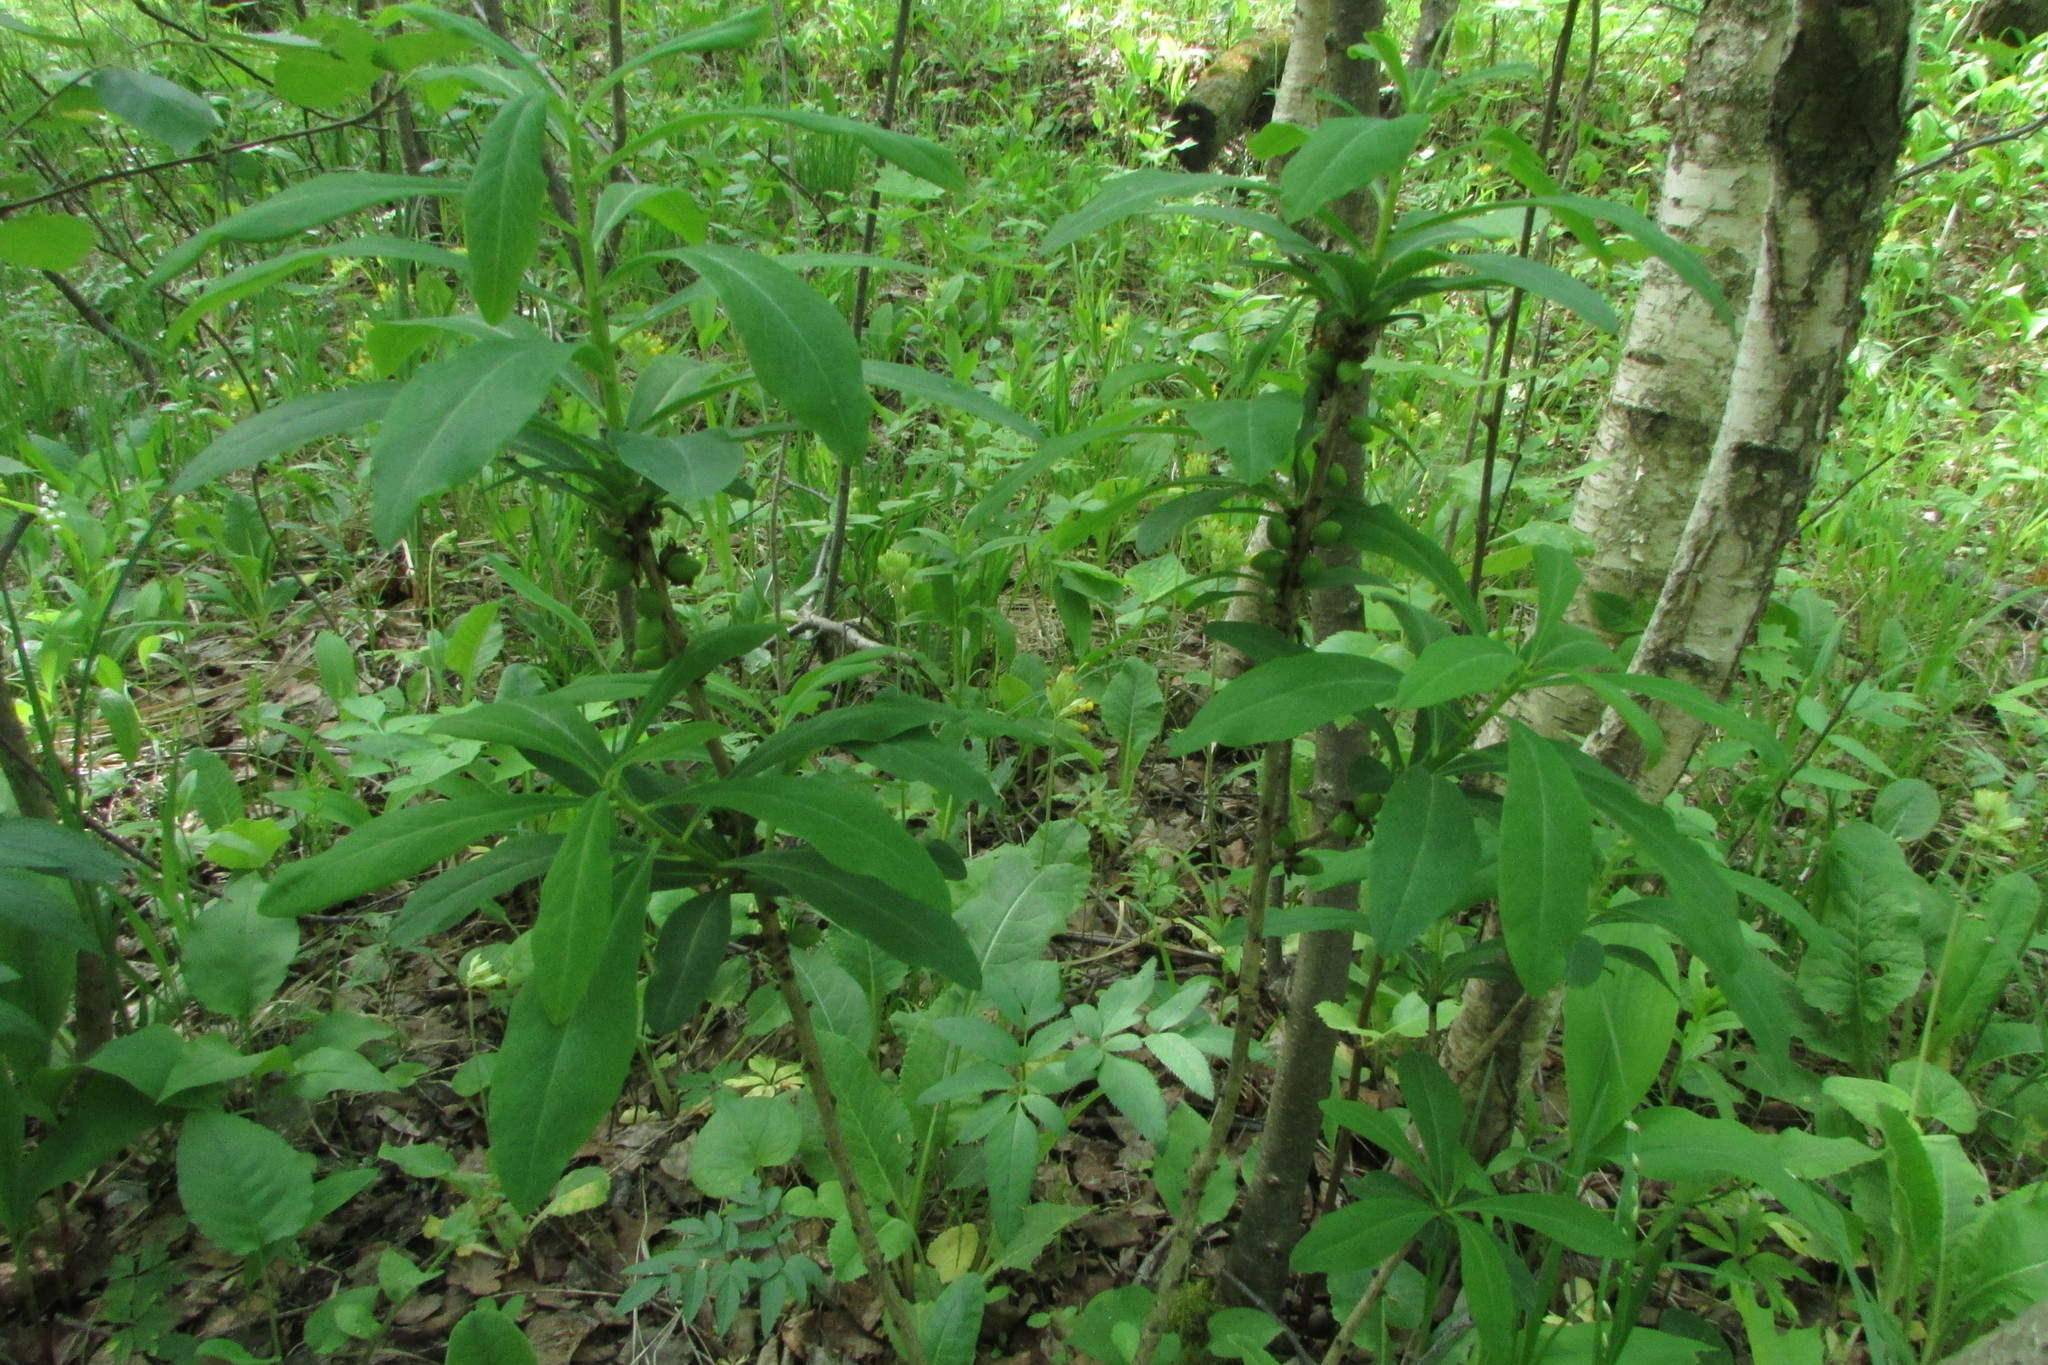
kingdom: Plantae
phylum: Tracheophyta
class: Magnoliopsida
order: Malvales
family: Thymelaeaceae
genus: Daphne
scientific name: Daphne mezereum
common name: Mezereon
